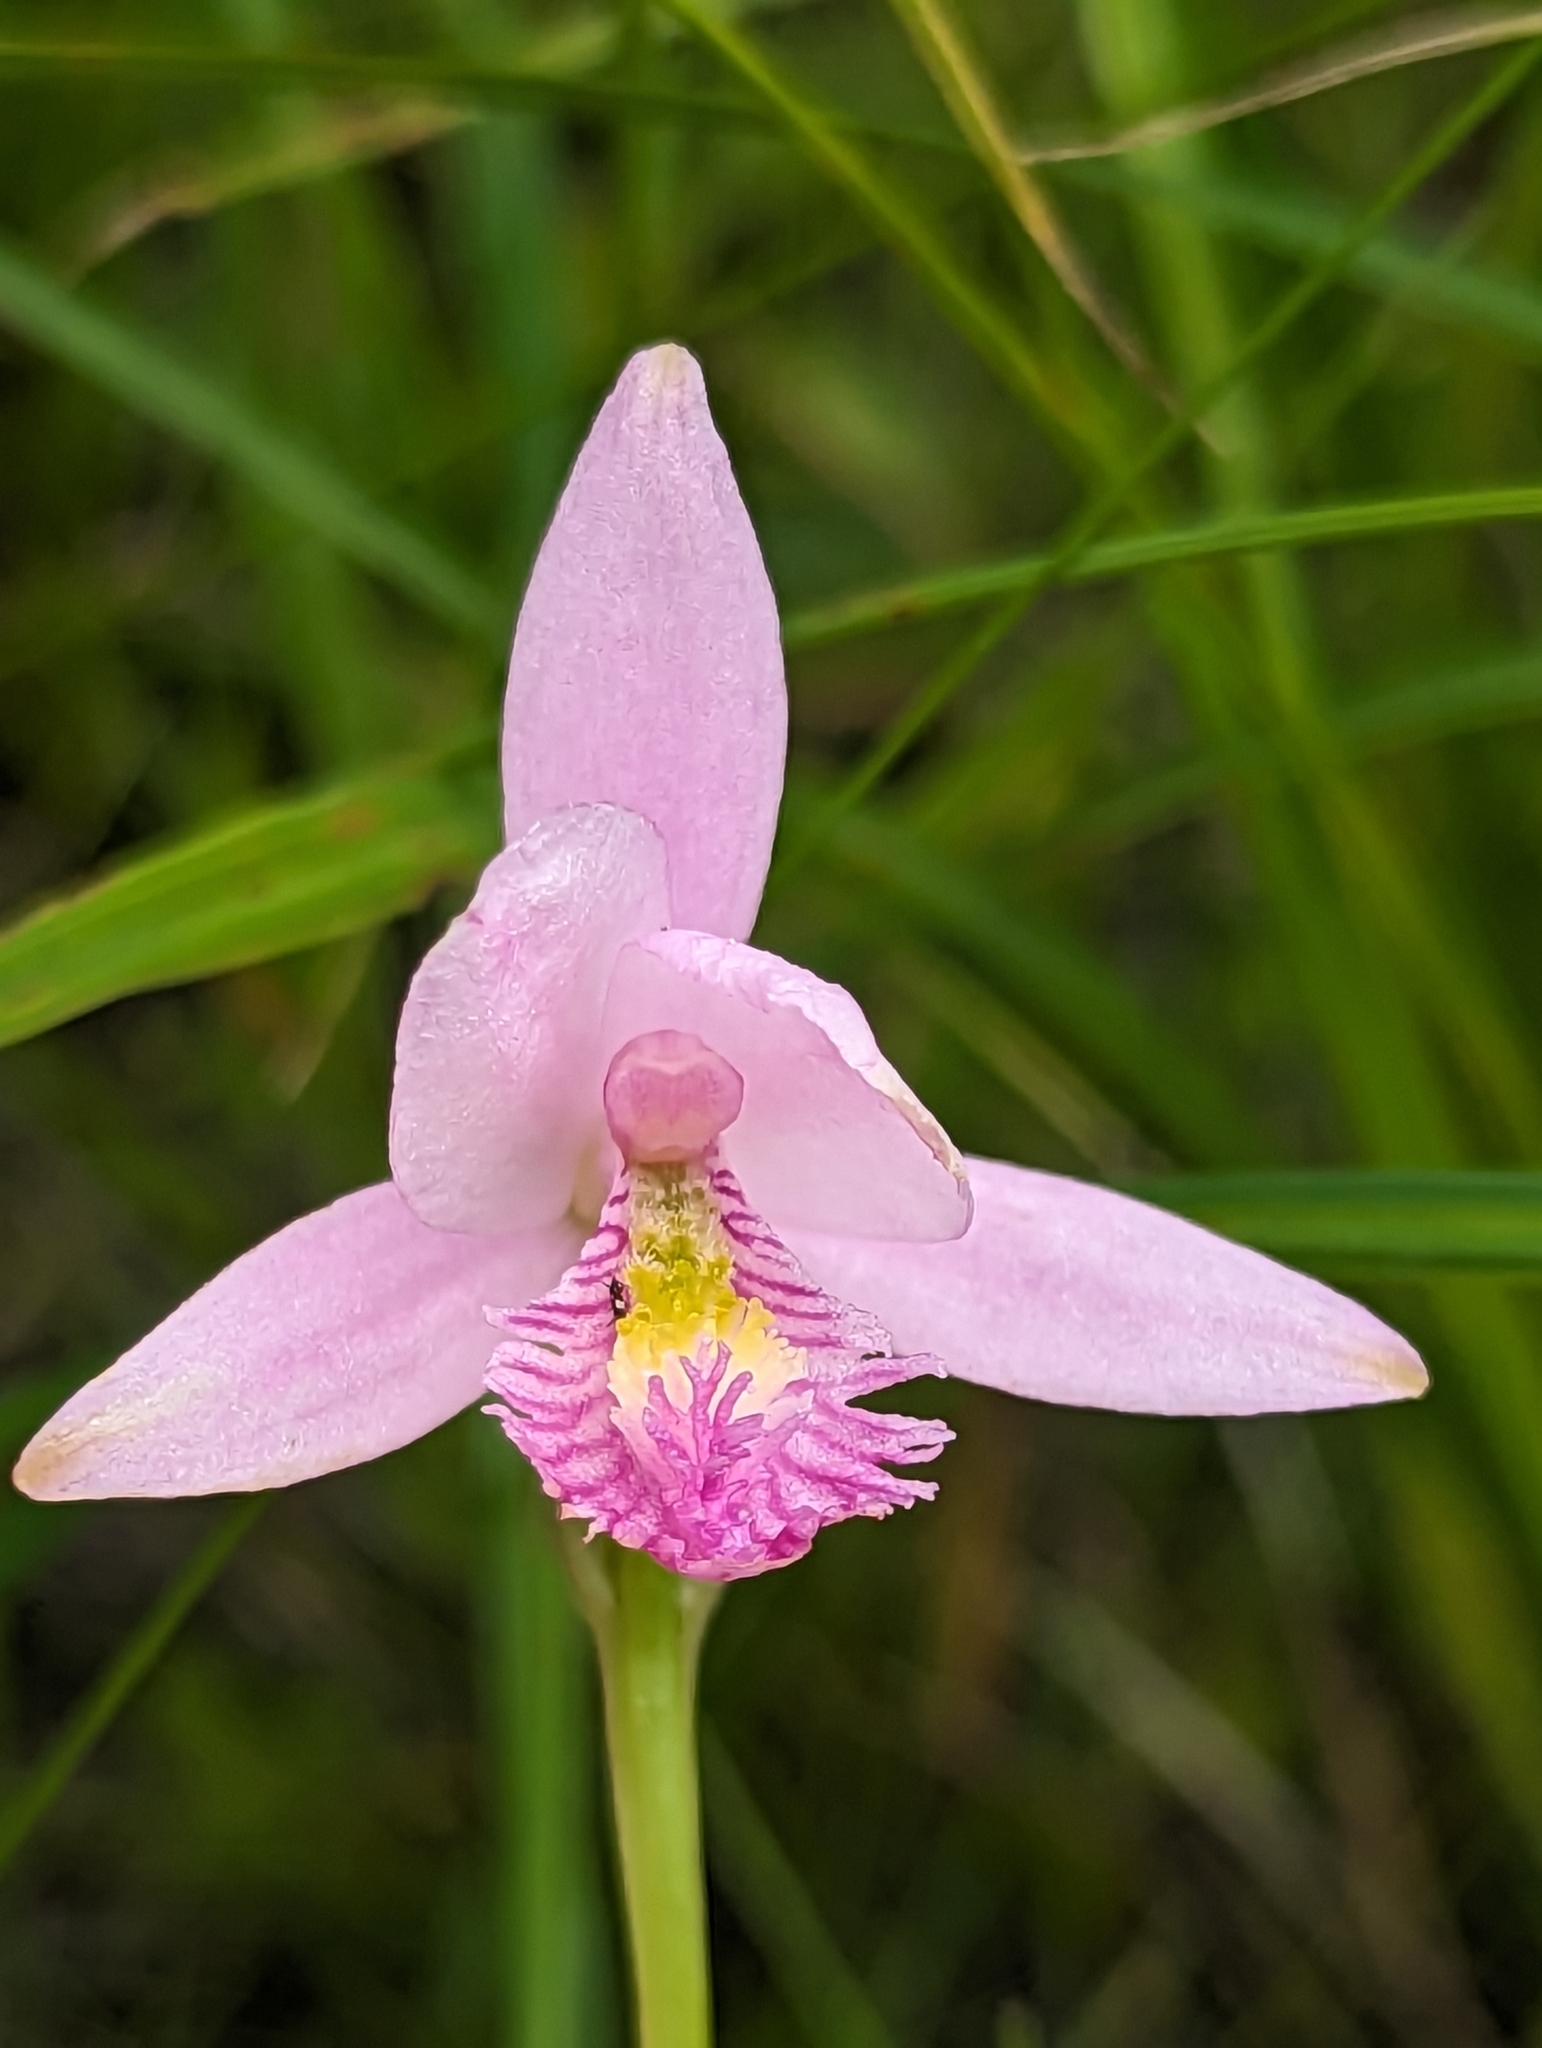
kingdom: Plantae
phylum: Tracheophyta
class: Liliopsida
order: Asparagales
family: Orchidaceae
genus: Pogonia
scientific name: Pogonia ophioglossoides
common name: Rose pogonia
